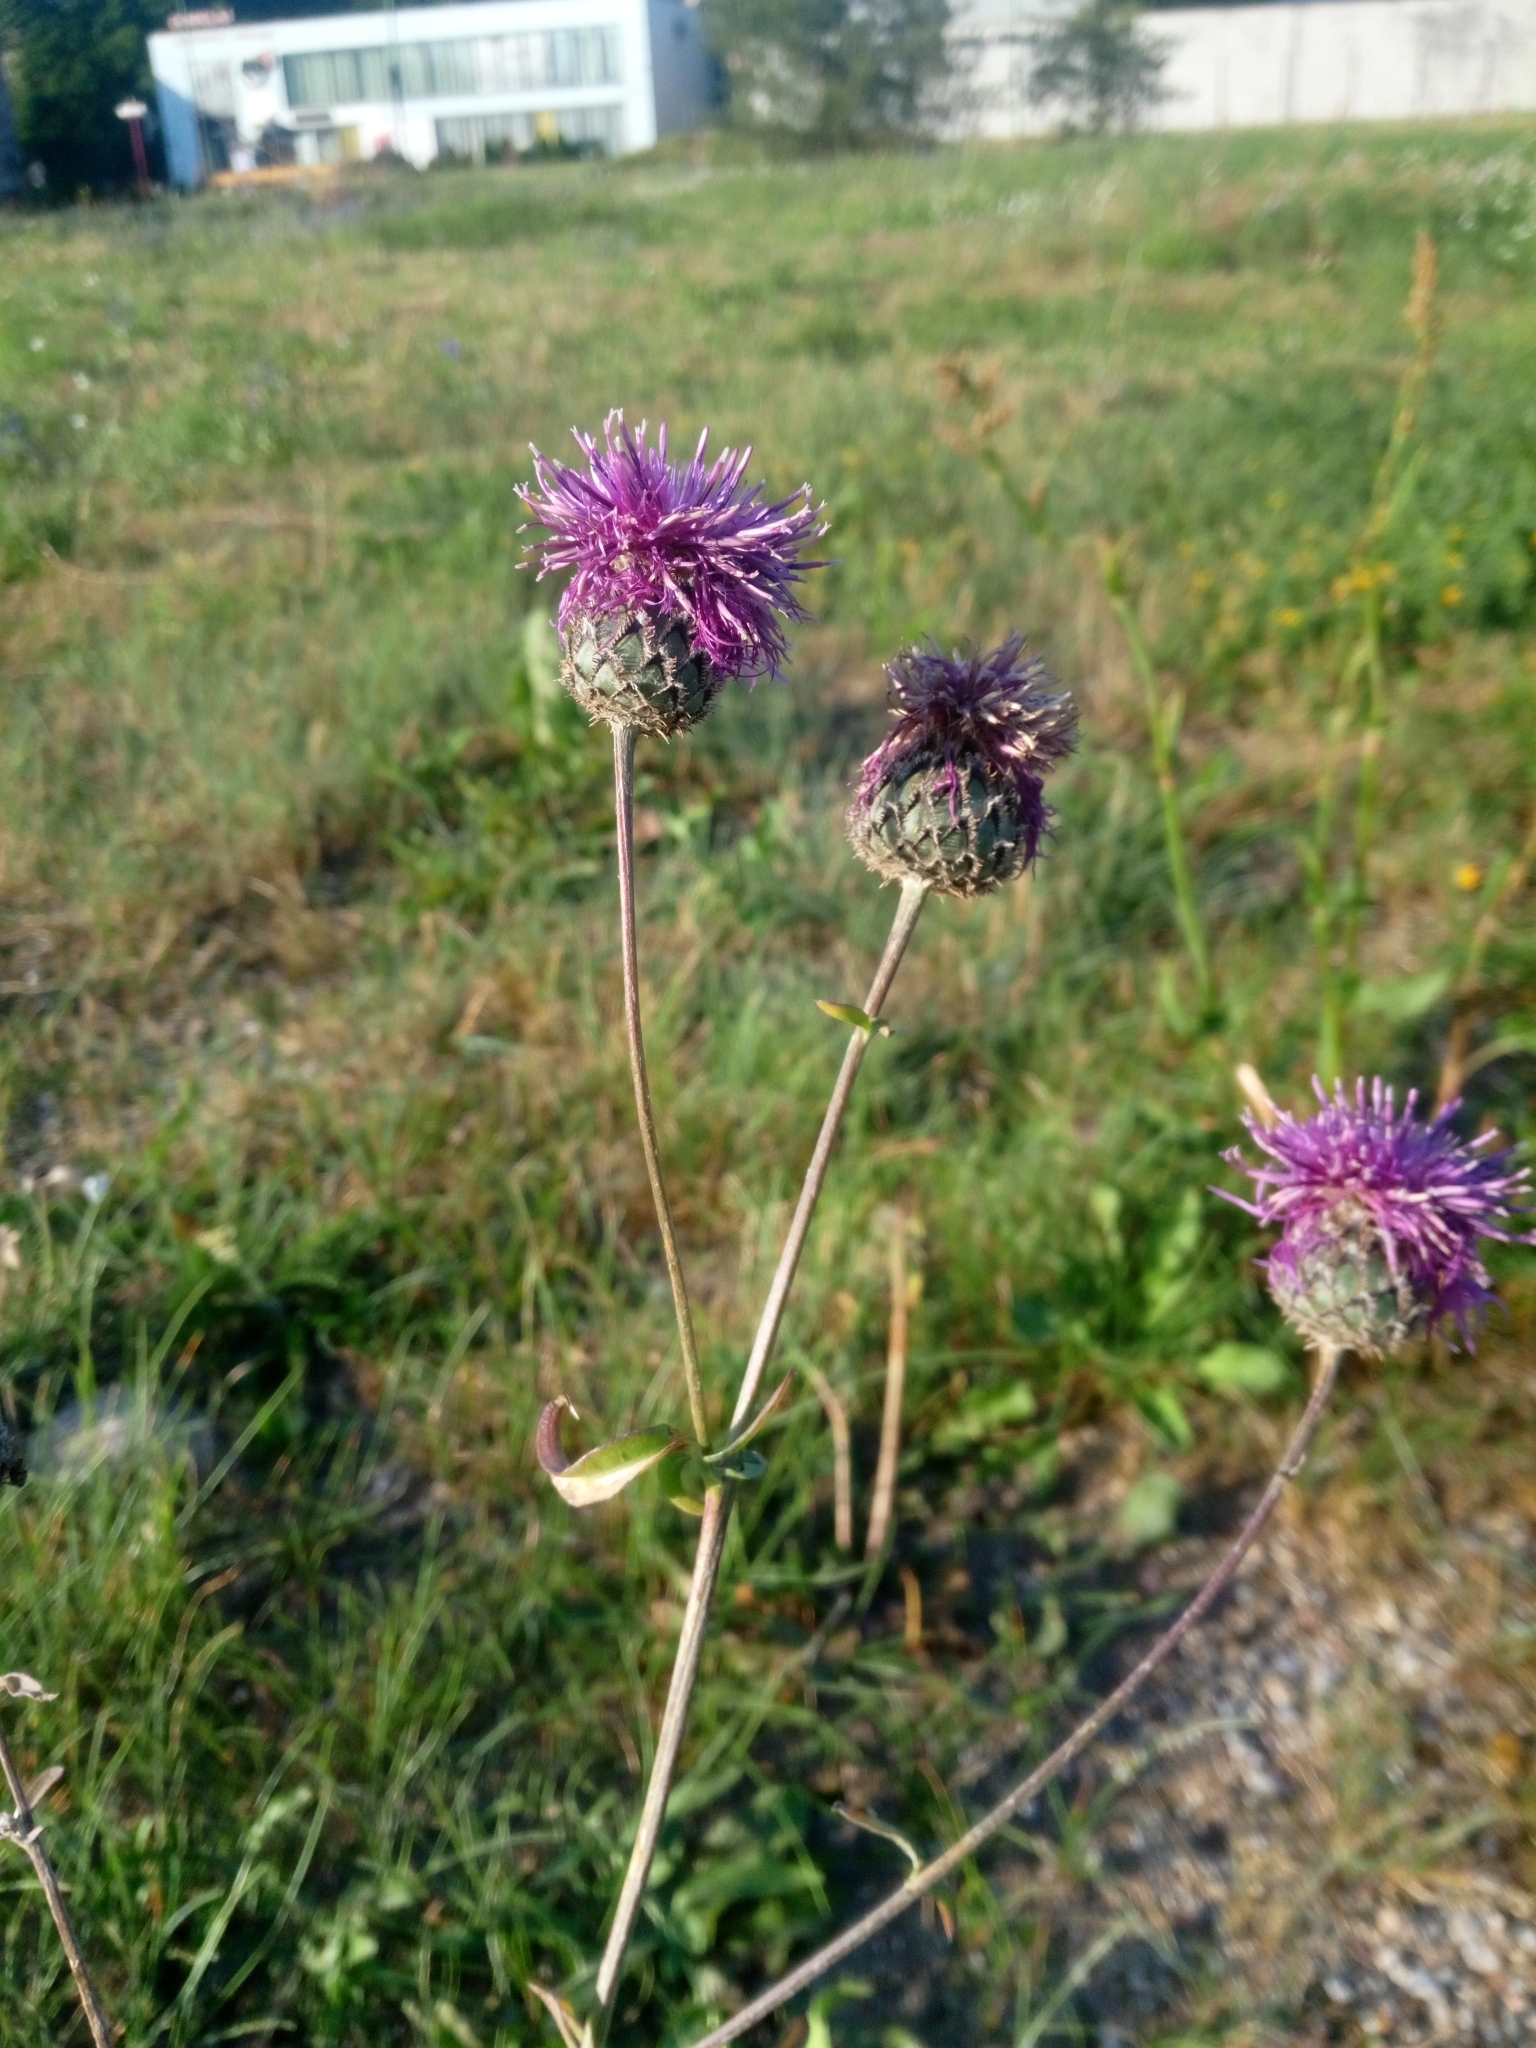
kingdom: Plantae
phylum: Tracheophyta
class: Magnoliopsida
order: Asterales
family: Asteraceae
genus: Centaurea
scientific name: Centaurea scabiosa
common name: Greater knapweed
